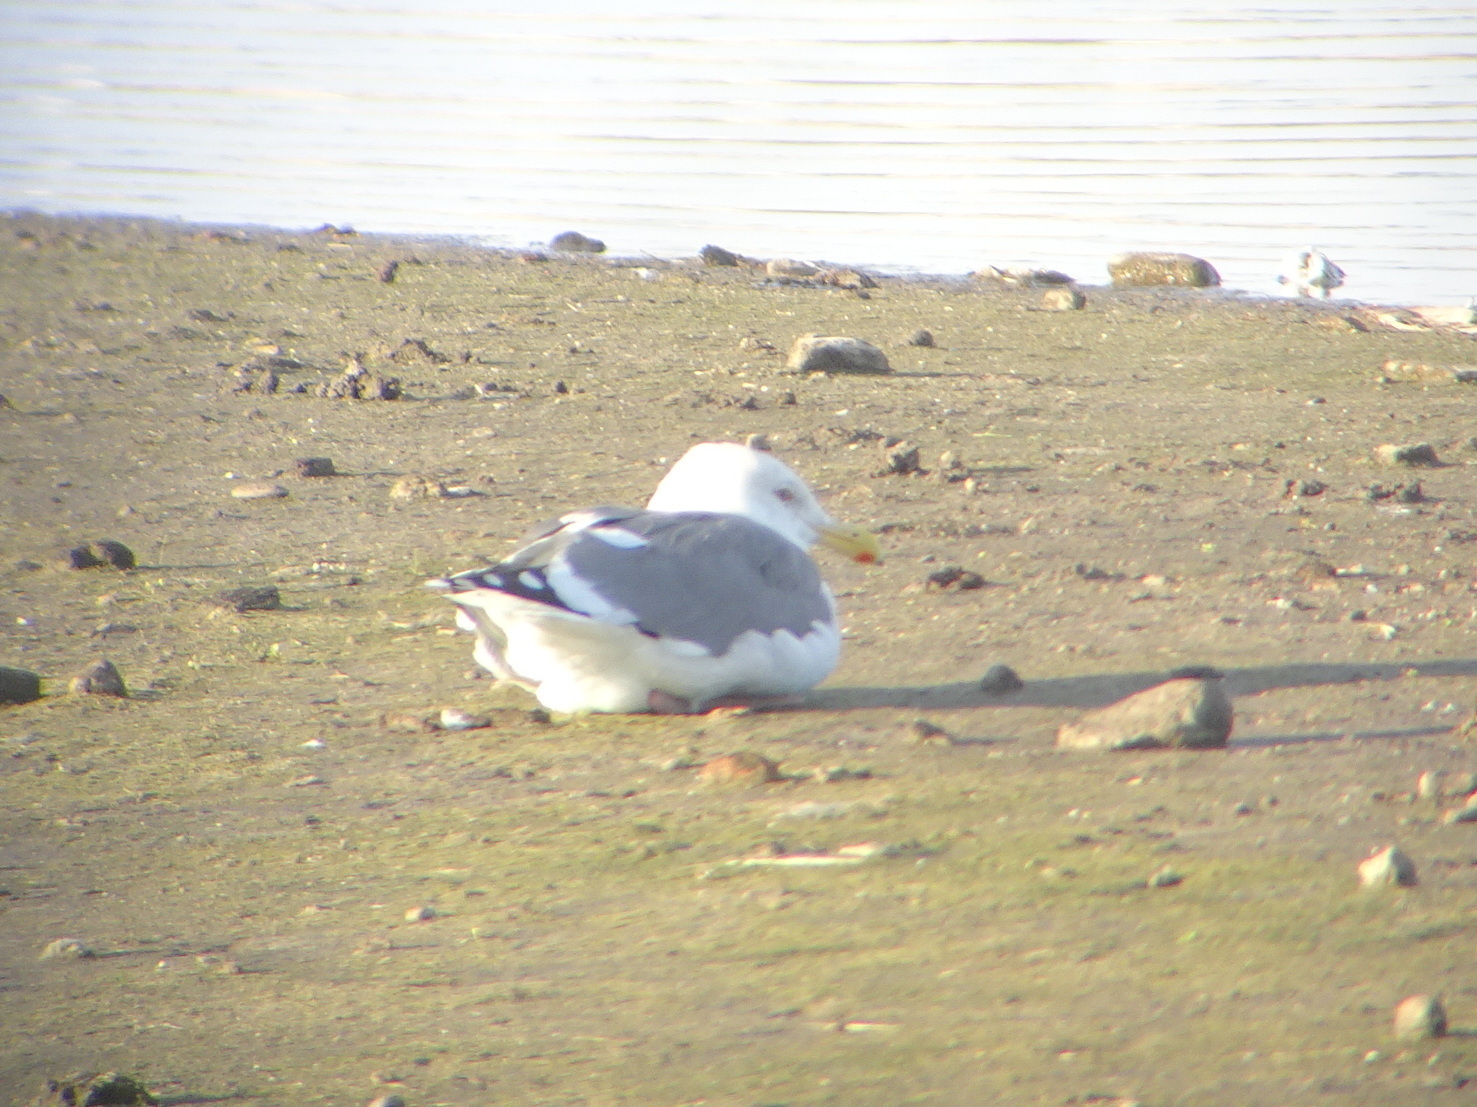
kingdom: Animalia
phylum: Chordata
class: Aves
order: Charadriiformes
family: Laridae
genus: Larus
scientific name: Larus occidentalis
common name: Western gull
